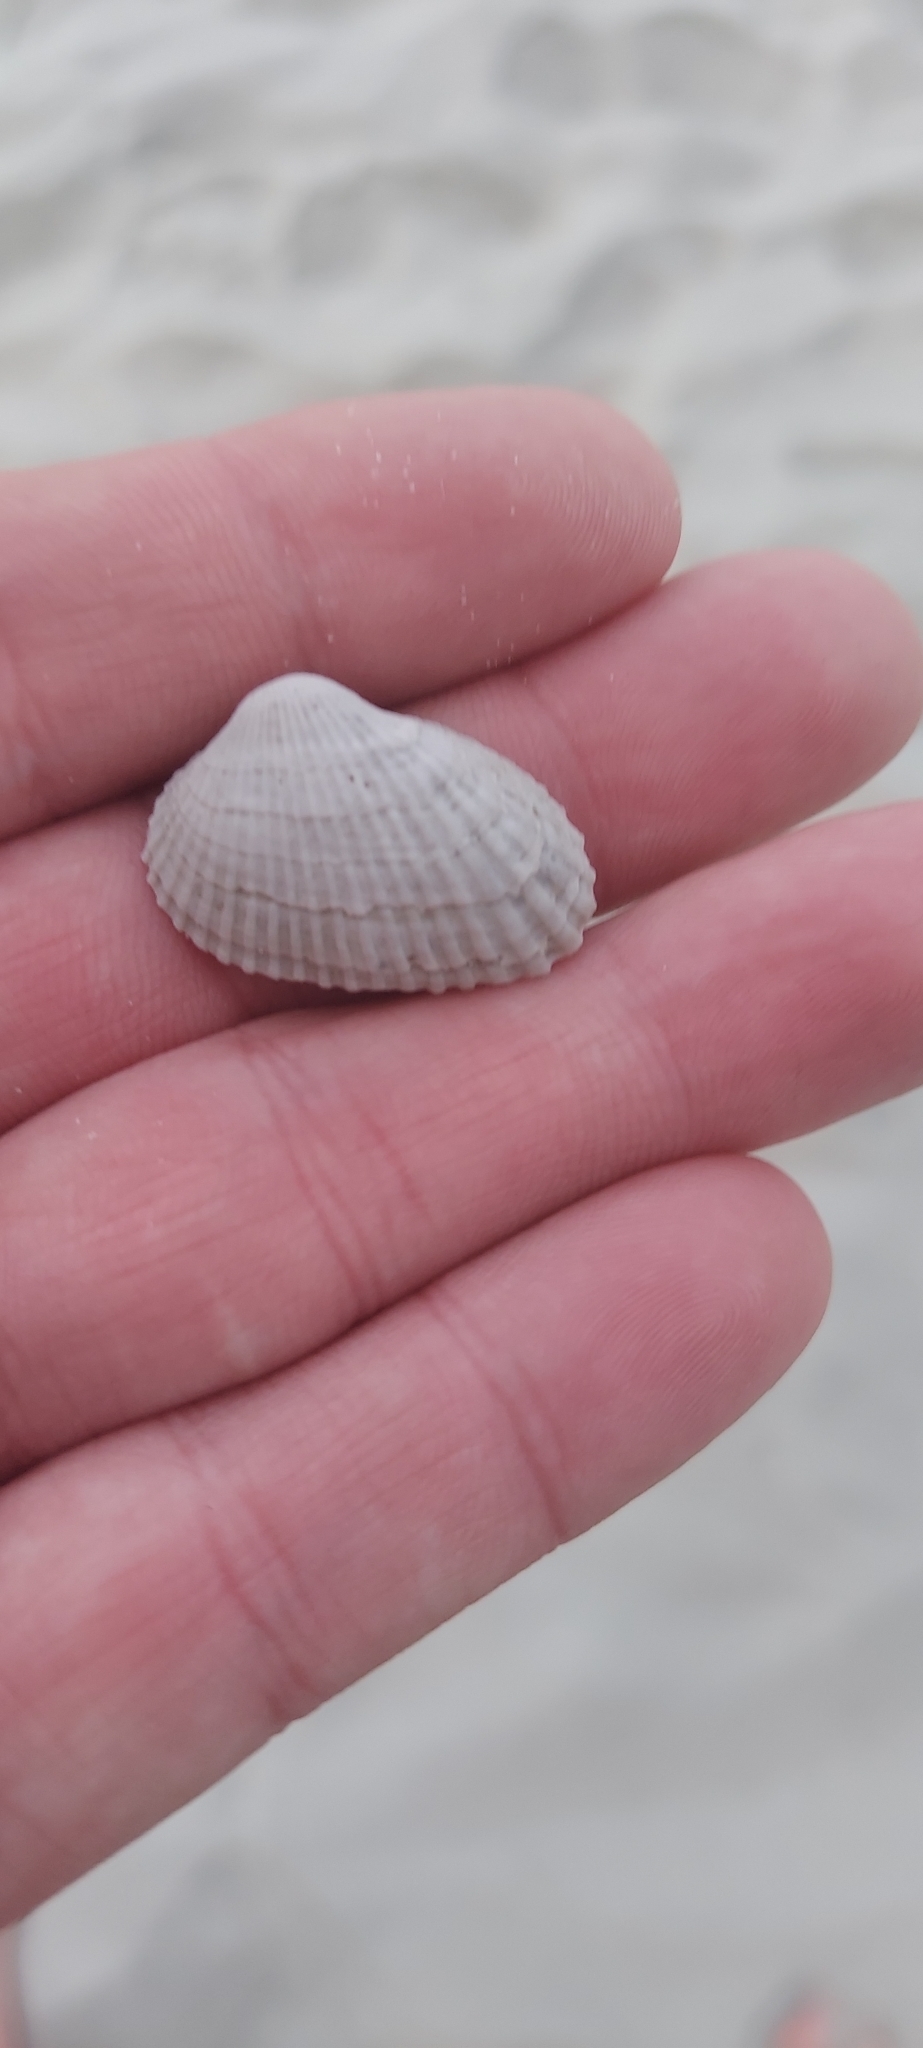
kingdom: Animalia
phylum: Mollusca
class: Bivalvia
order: Arcida
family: Arcidae
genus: Anadara
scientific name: Anadara transversa
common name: Transverse ark
